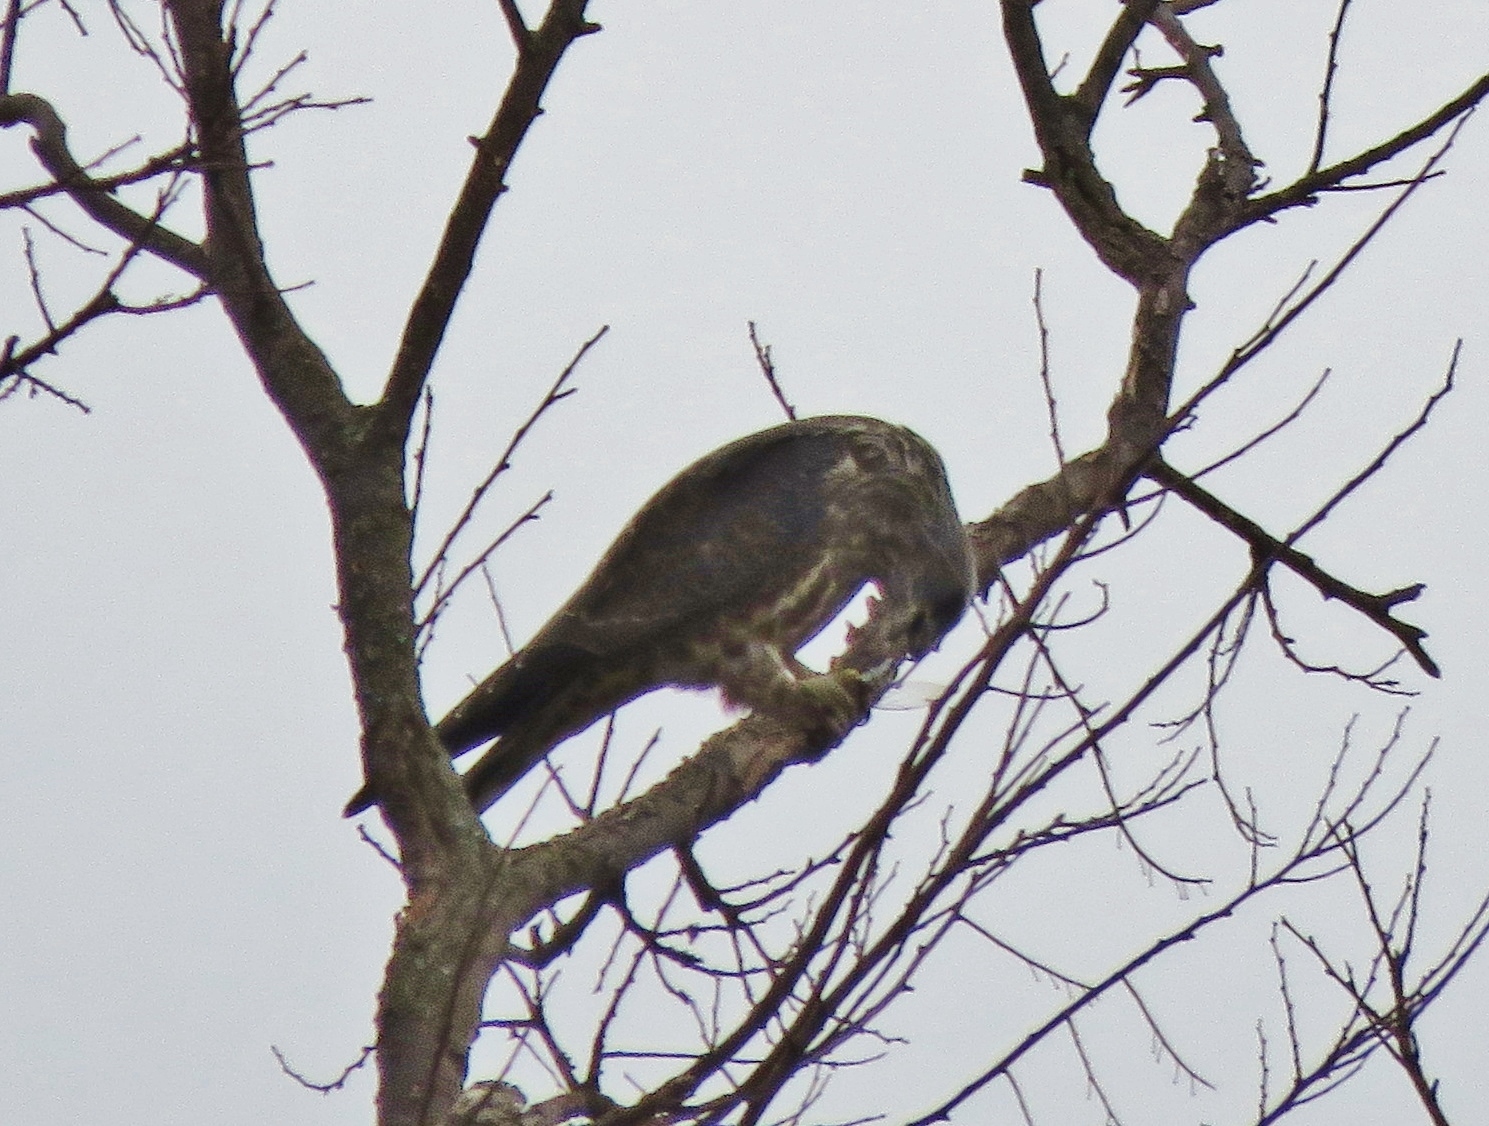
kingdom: Animalia
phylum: Chordata
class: Aves
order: Accipitriformes
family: Accipitridae
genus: Ictinia
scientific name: Ictinia mississippiensis
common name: Mississippi kite
